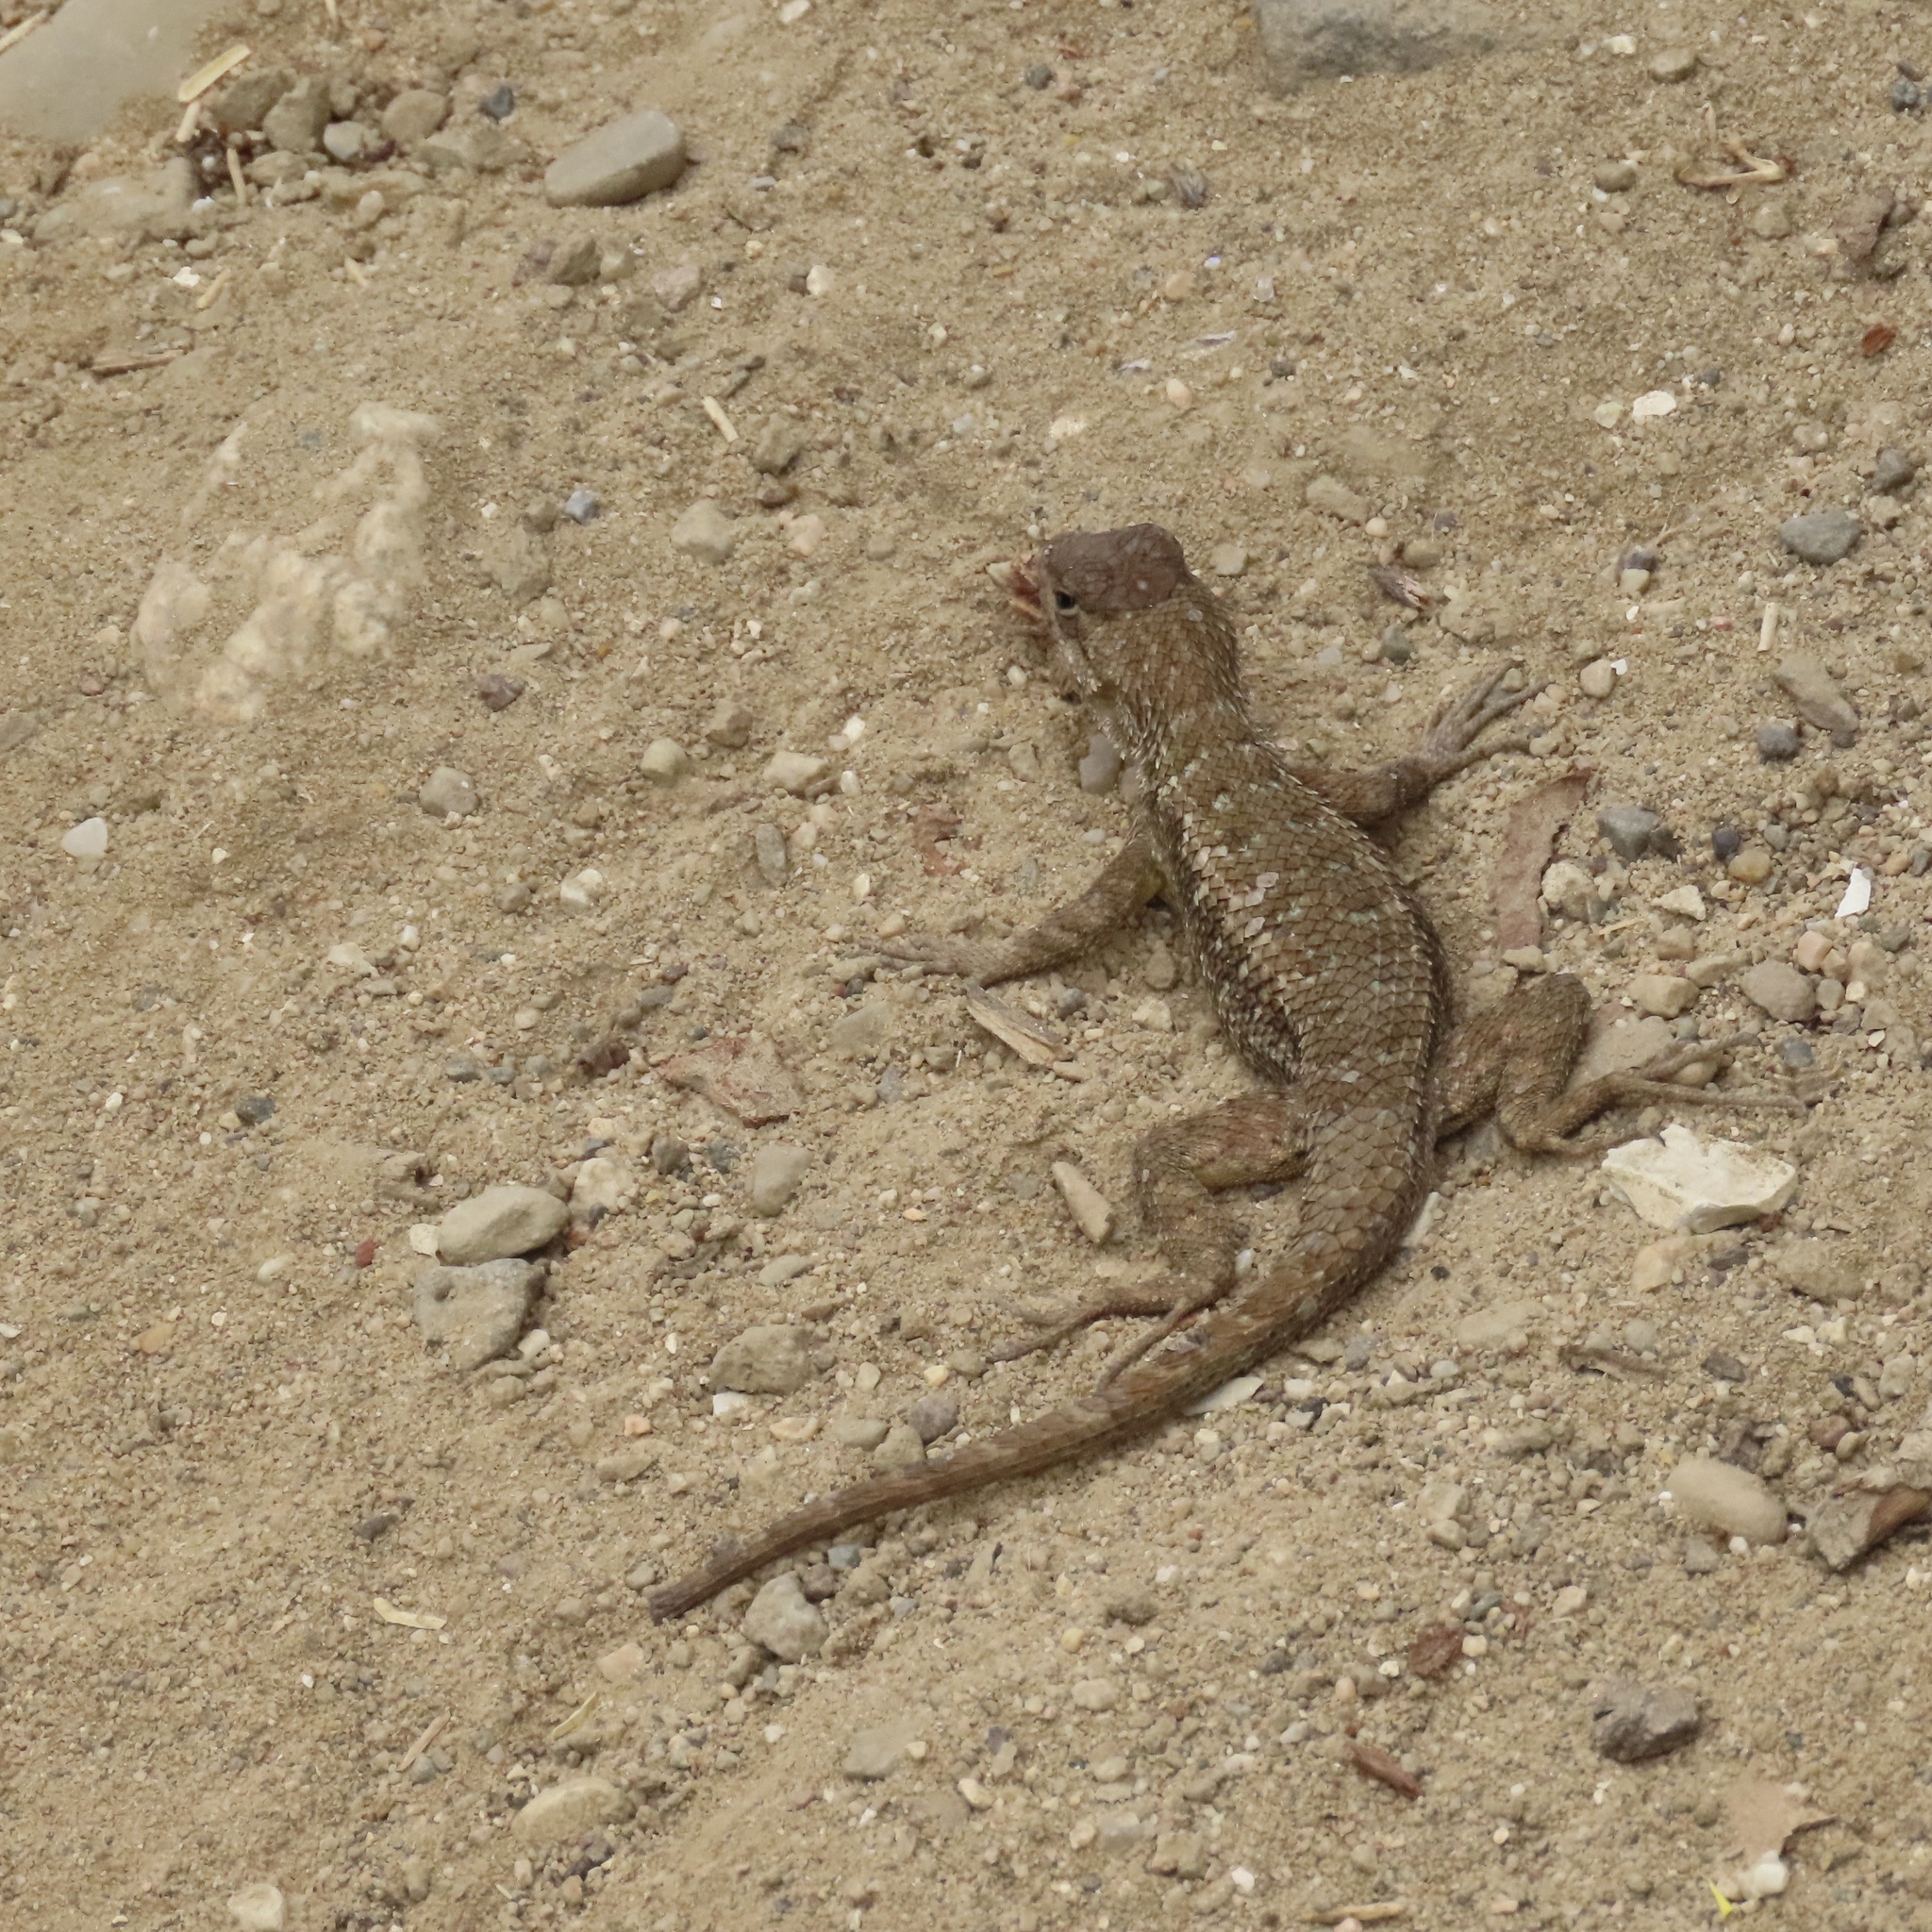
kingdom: Animalia
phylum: Chordata
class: Squamata
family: Phrynosomatidae
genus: Sceloporus
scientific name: Sceloporus occidentalis
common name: Western fence lizard
